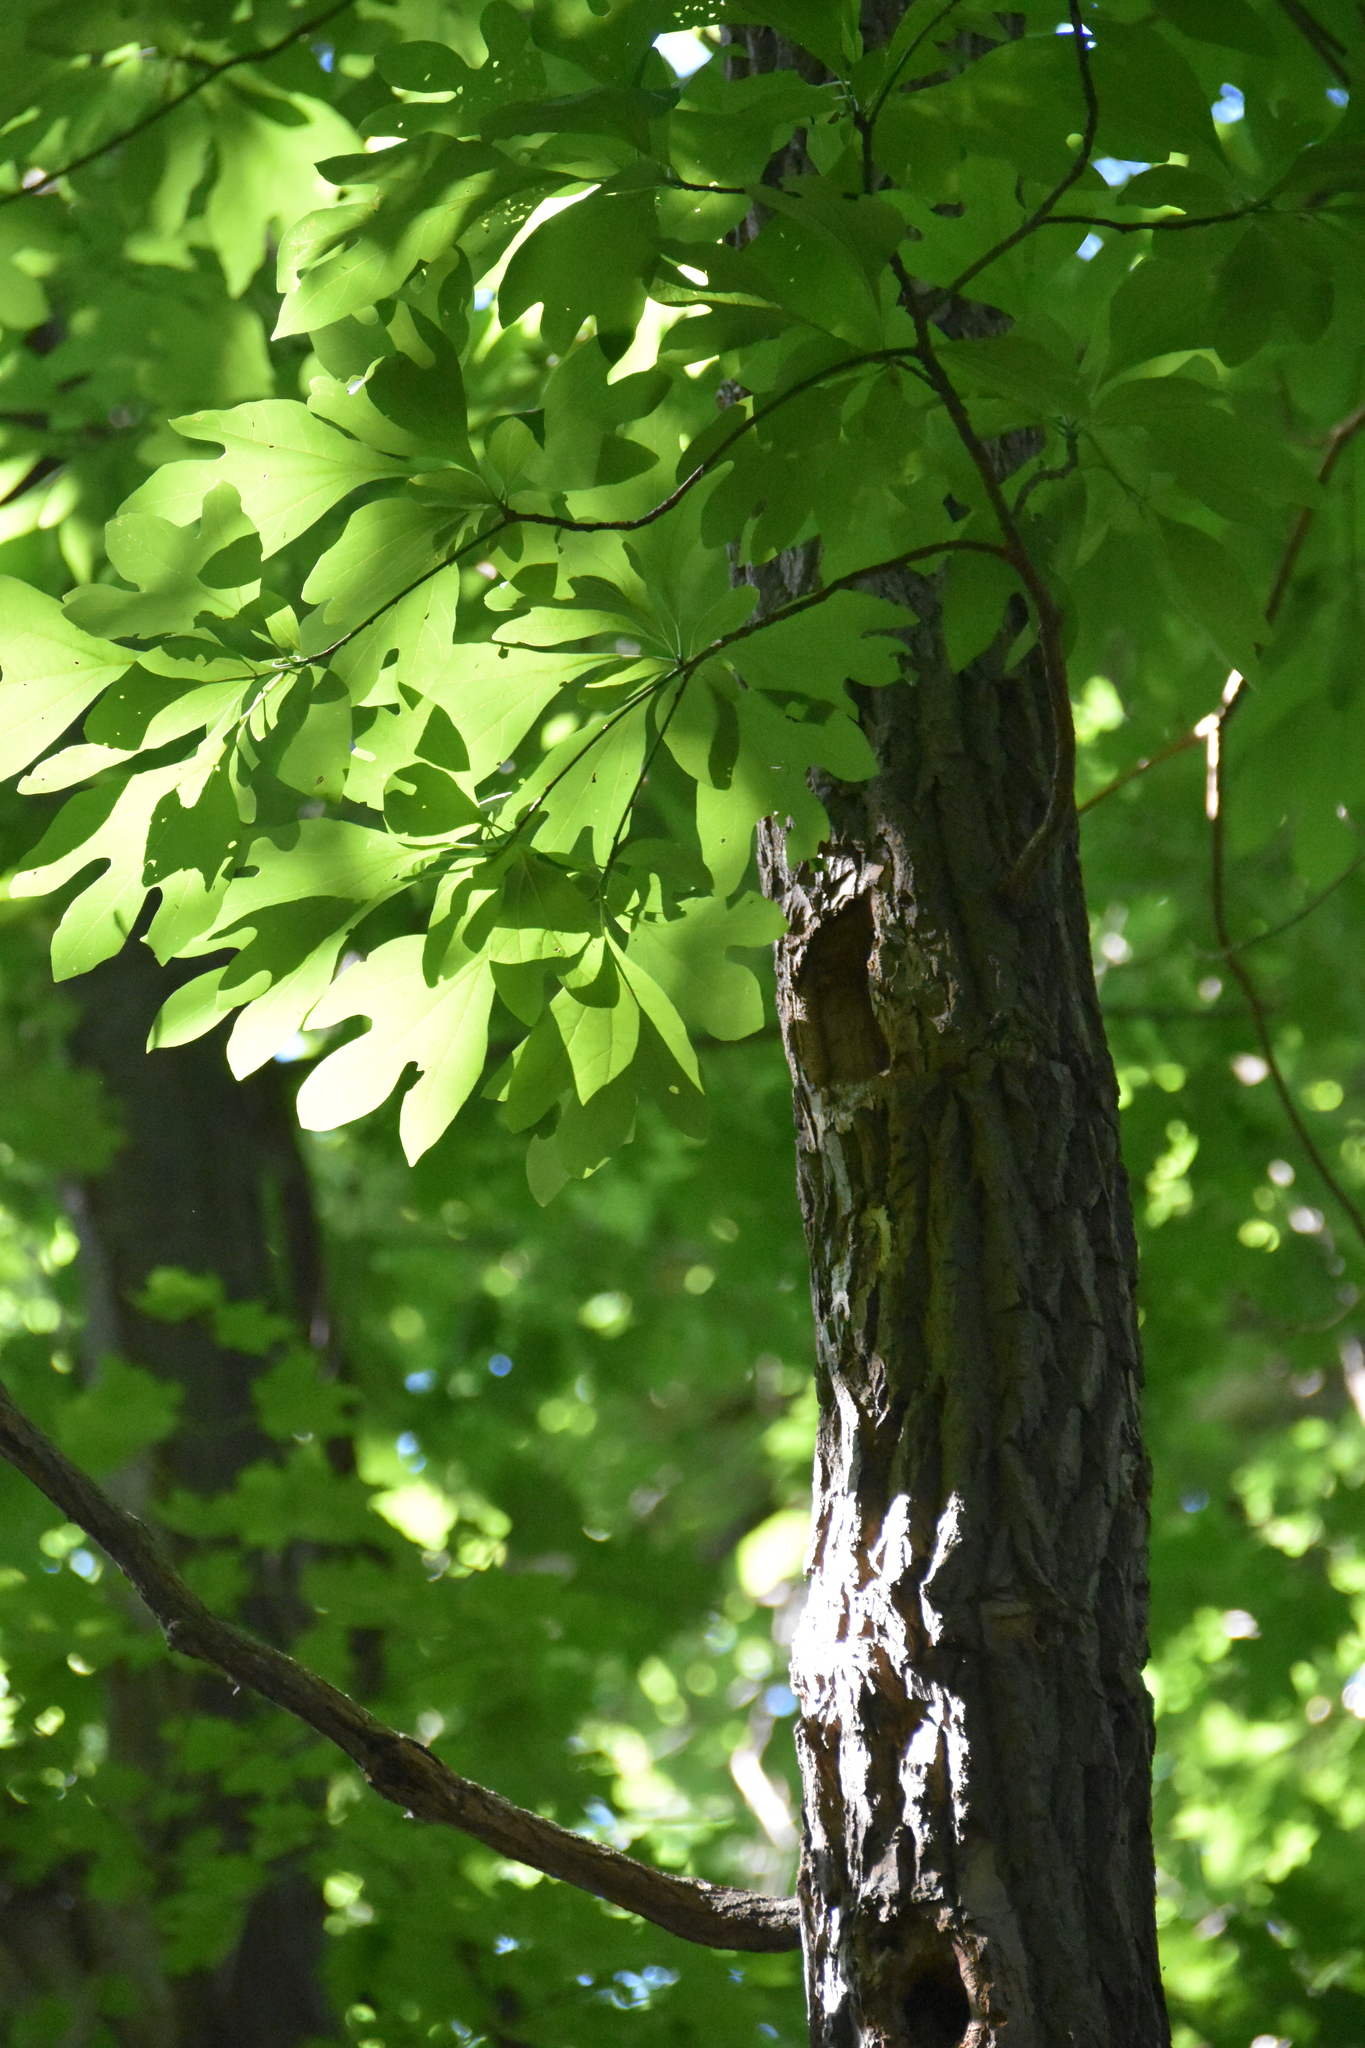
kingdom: Plantae
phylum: Tracheophyta
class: Magnoliopsida
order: Laurales
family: Lauraceae
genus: Sassafras
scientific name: Sassafras albidum
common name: Sassafras
